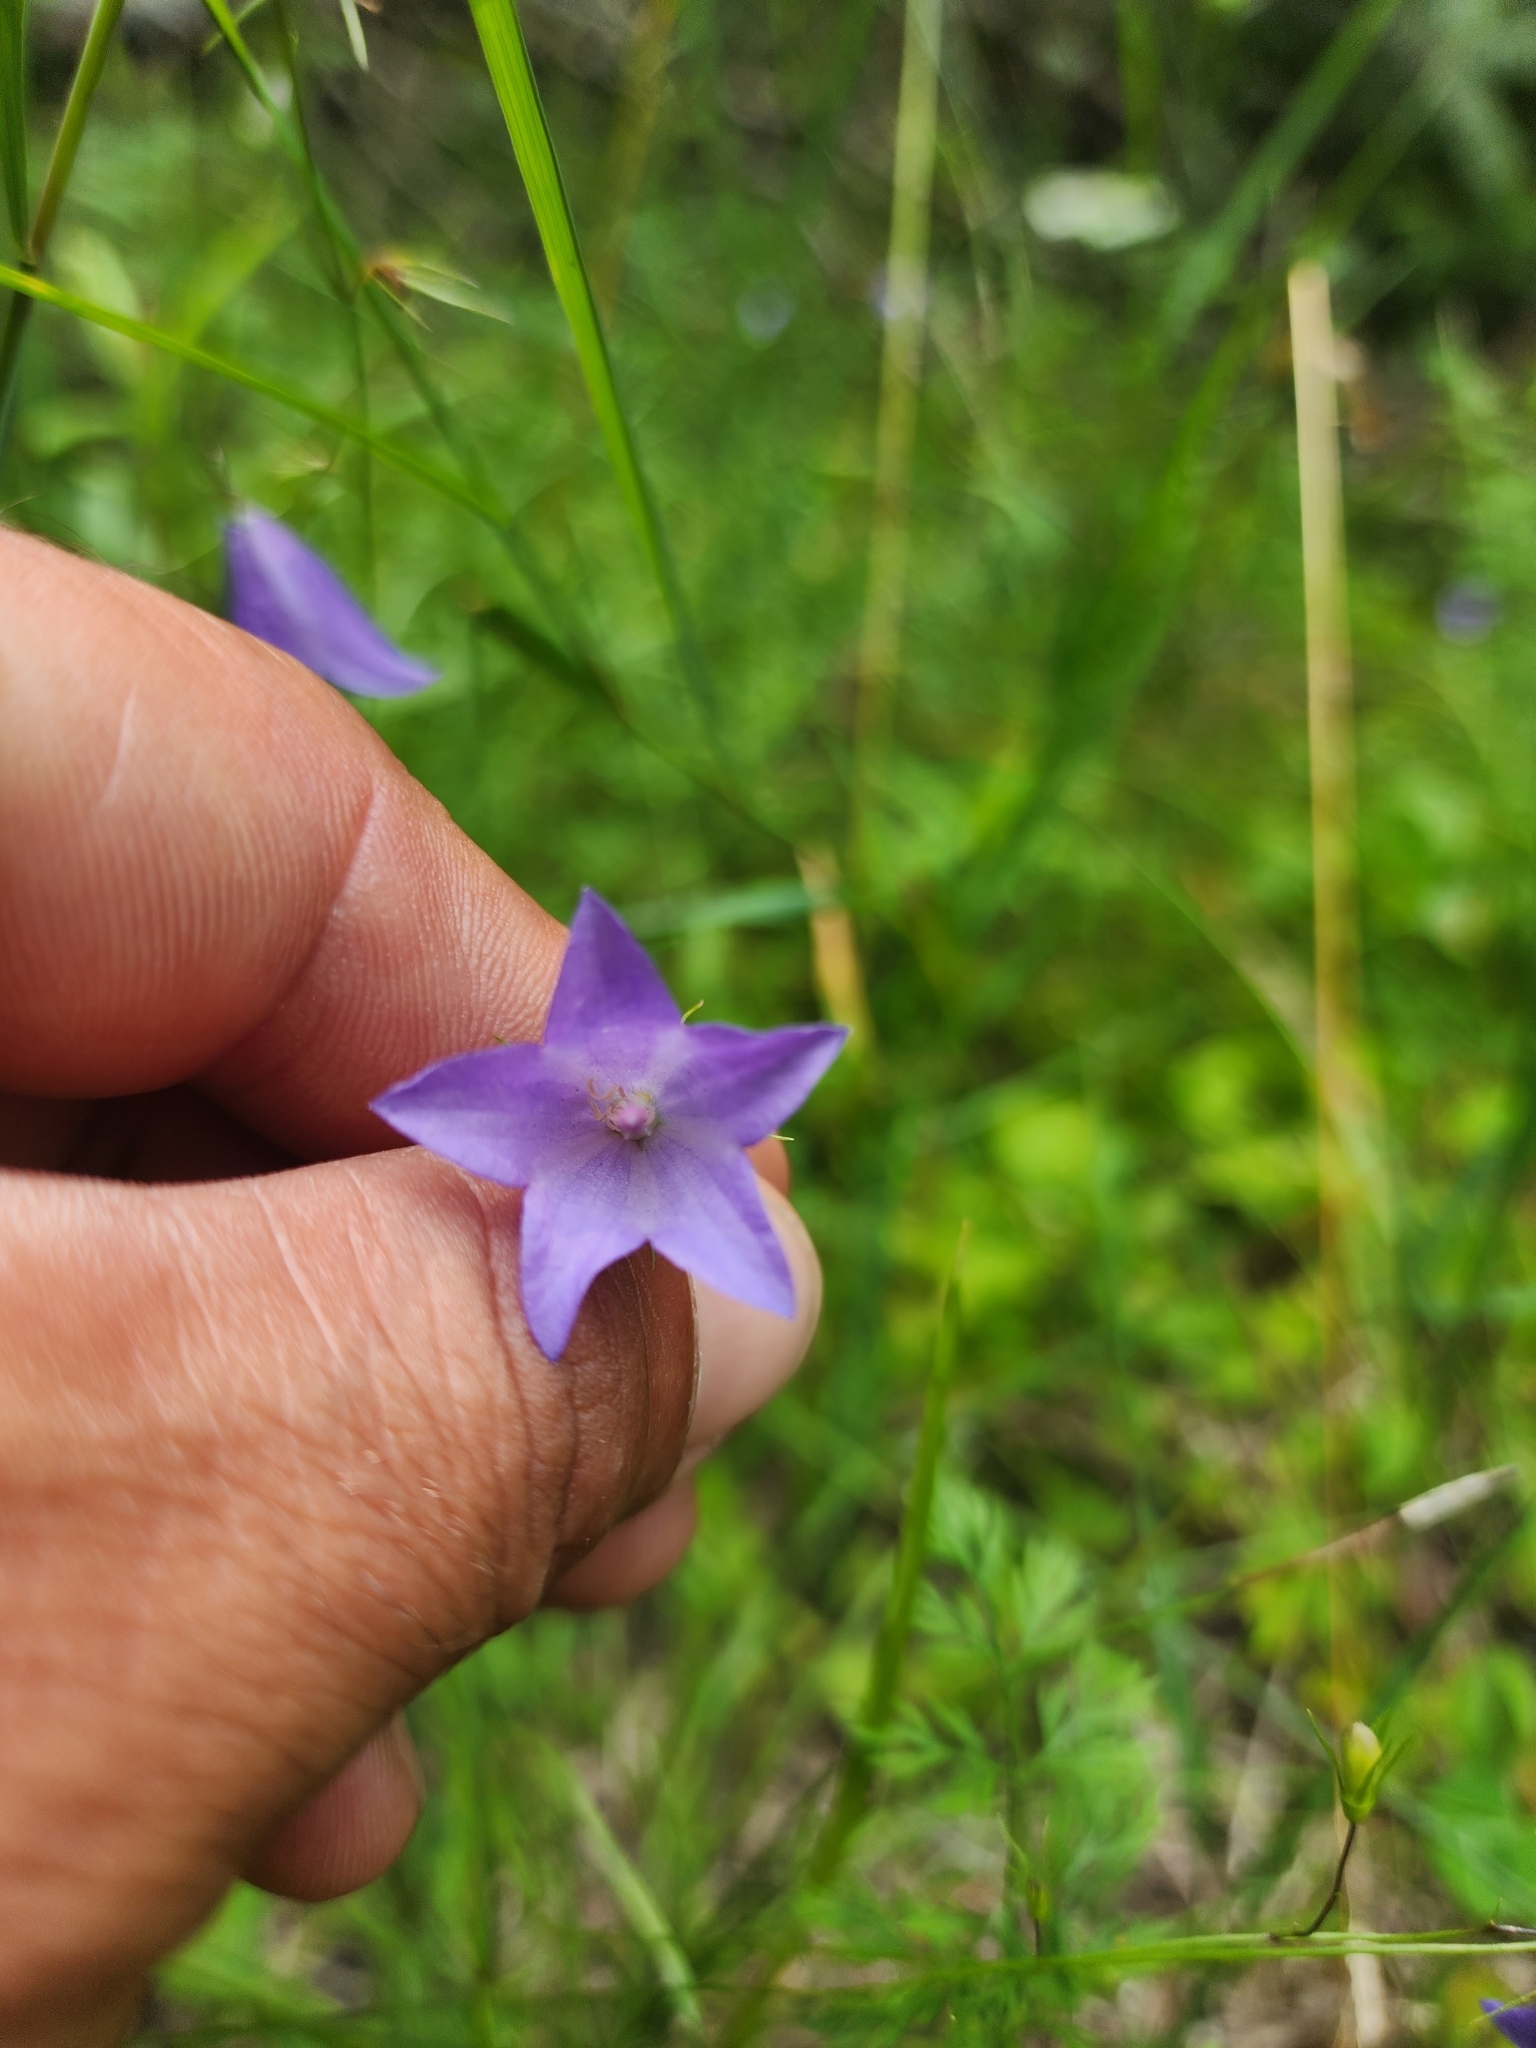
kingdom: Plantae
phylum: Tracheophyta
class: Magnoliopsida
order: Asterales
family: Campanulaceae
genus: Campanula
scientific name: Campanula intercedens
